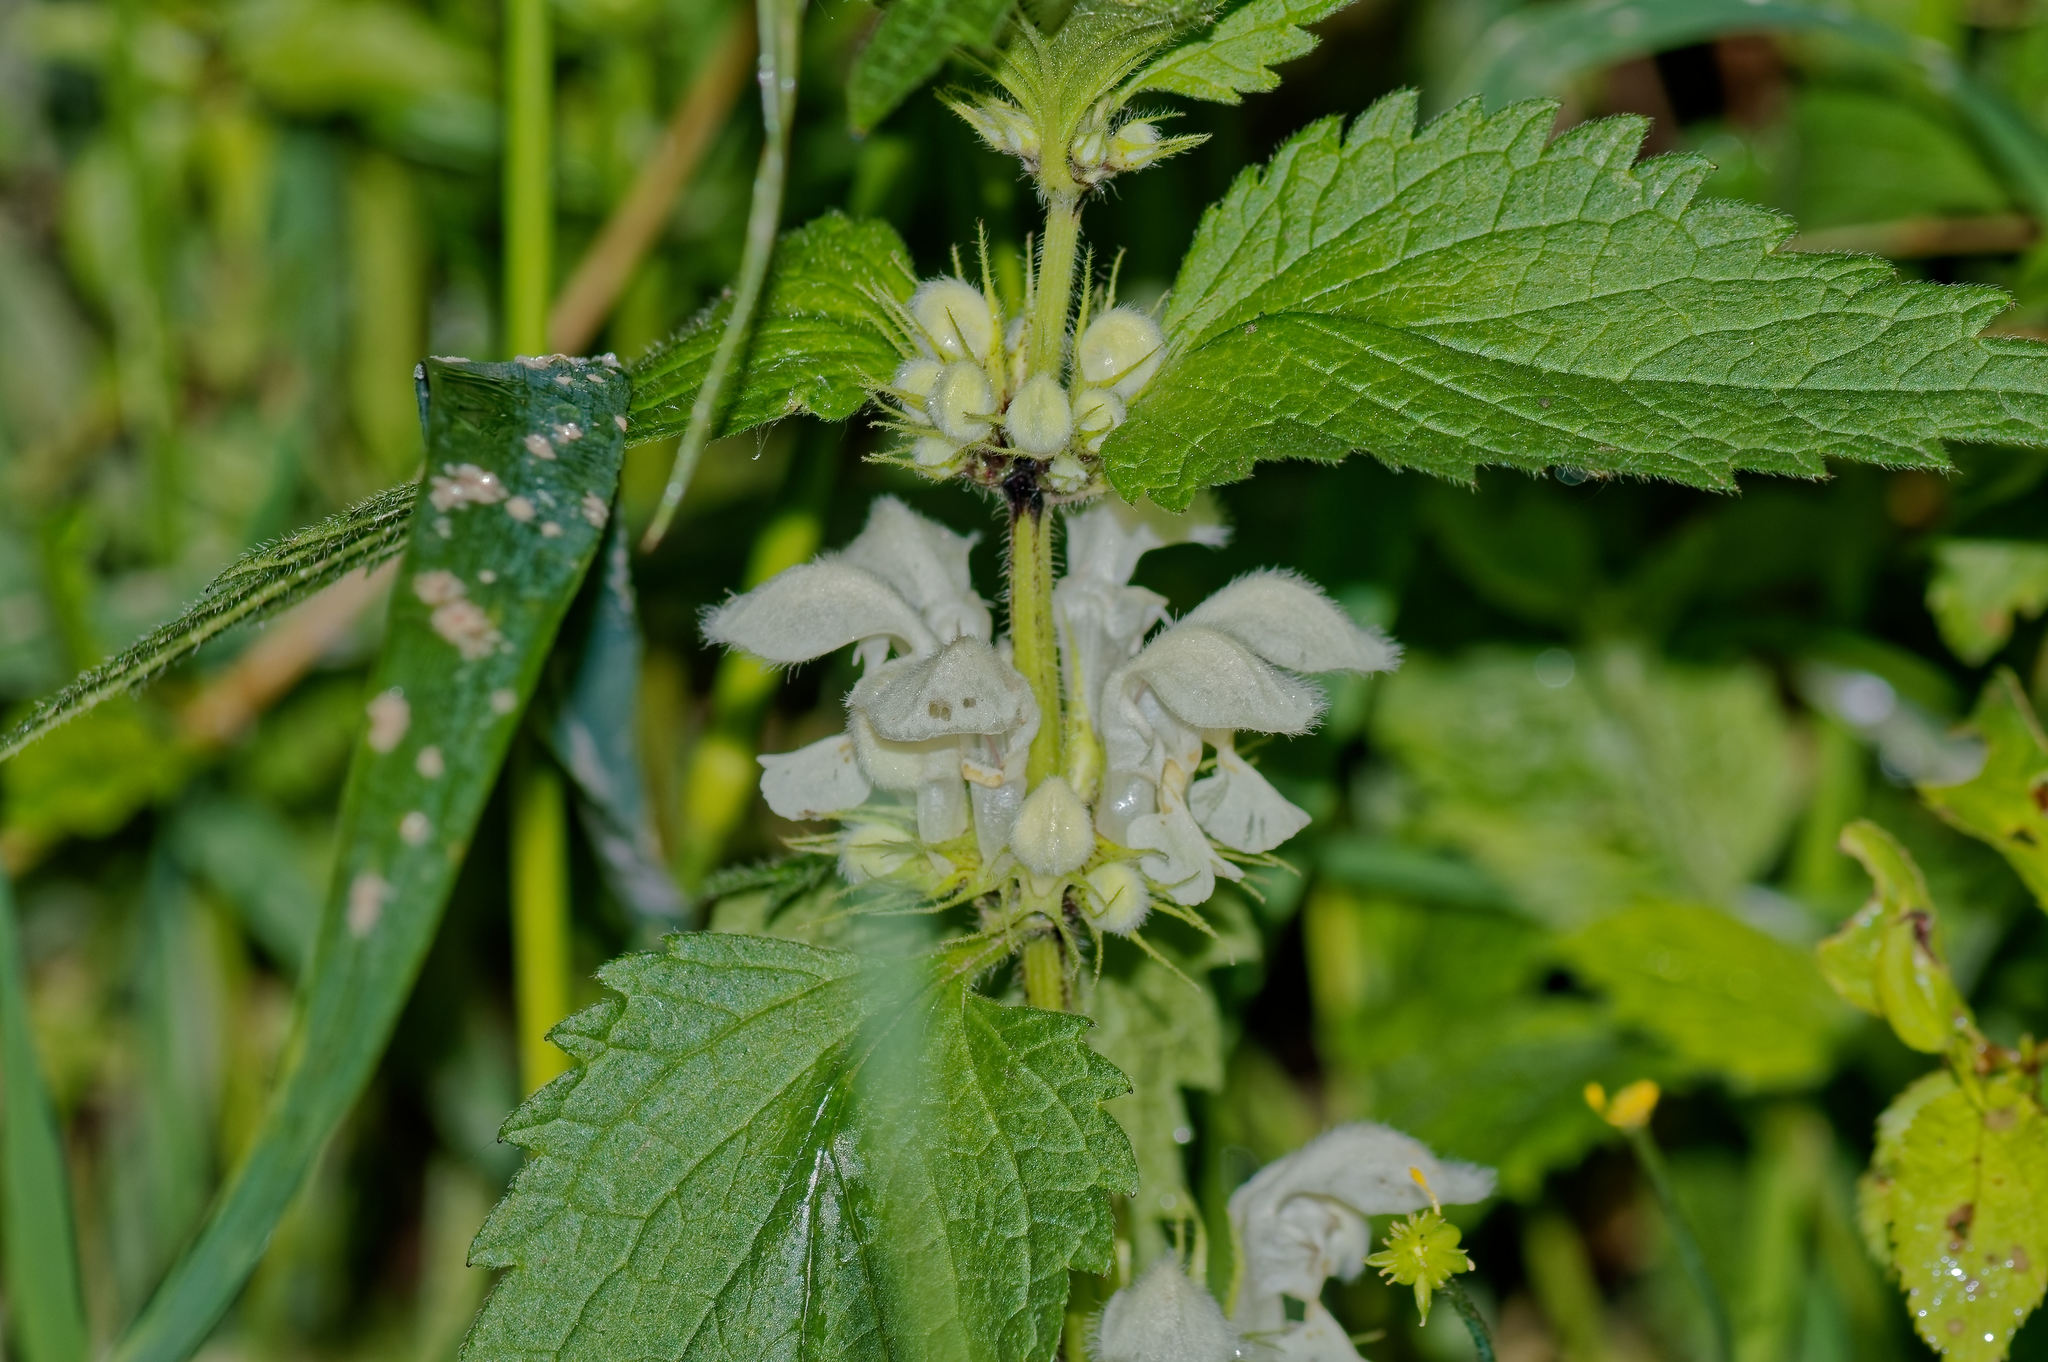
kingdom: Plantae
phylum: Tracheophyta
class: Magnoliopsida
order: Lamiales
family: Lamiaceae
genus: Lamium
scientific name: Lamium album
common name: White dead-nettle
